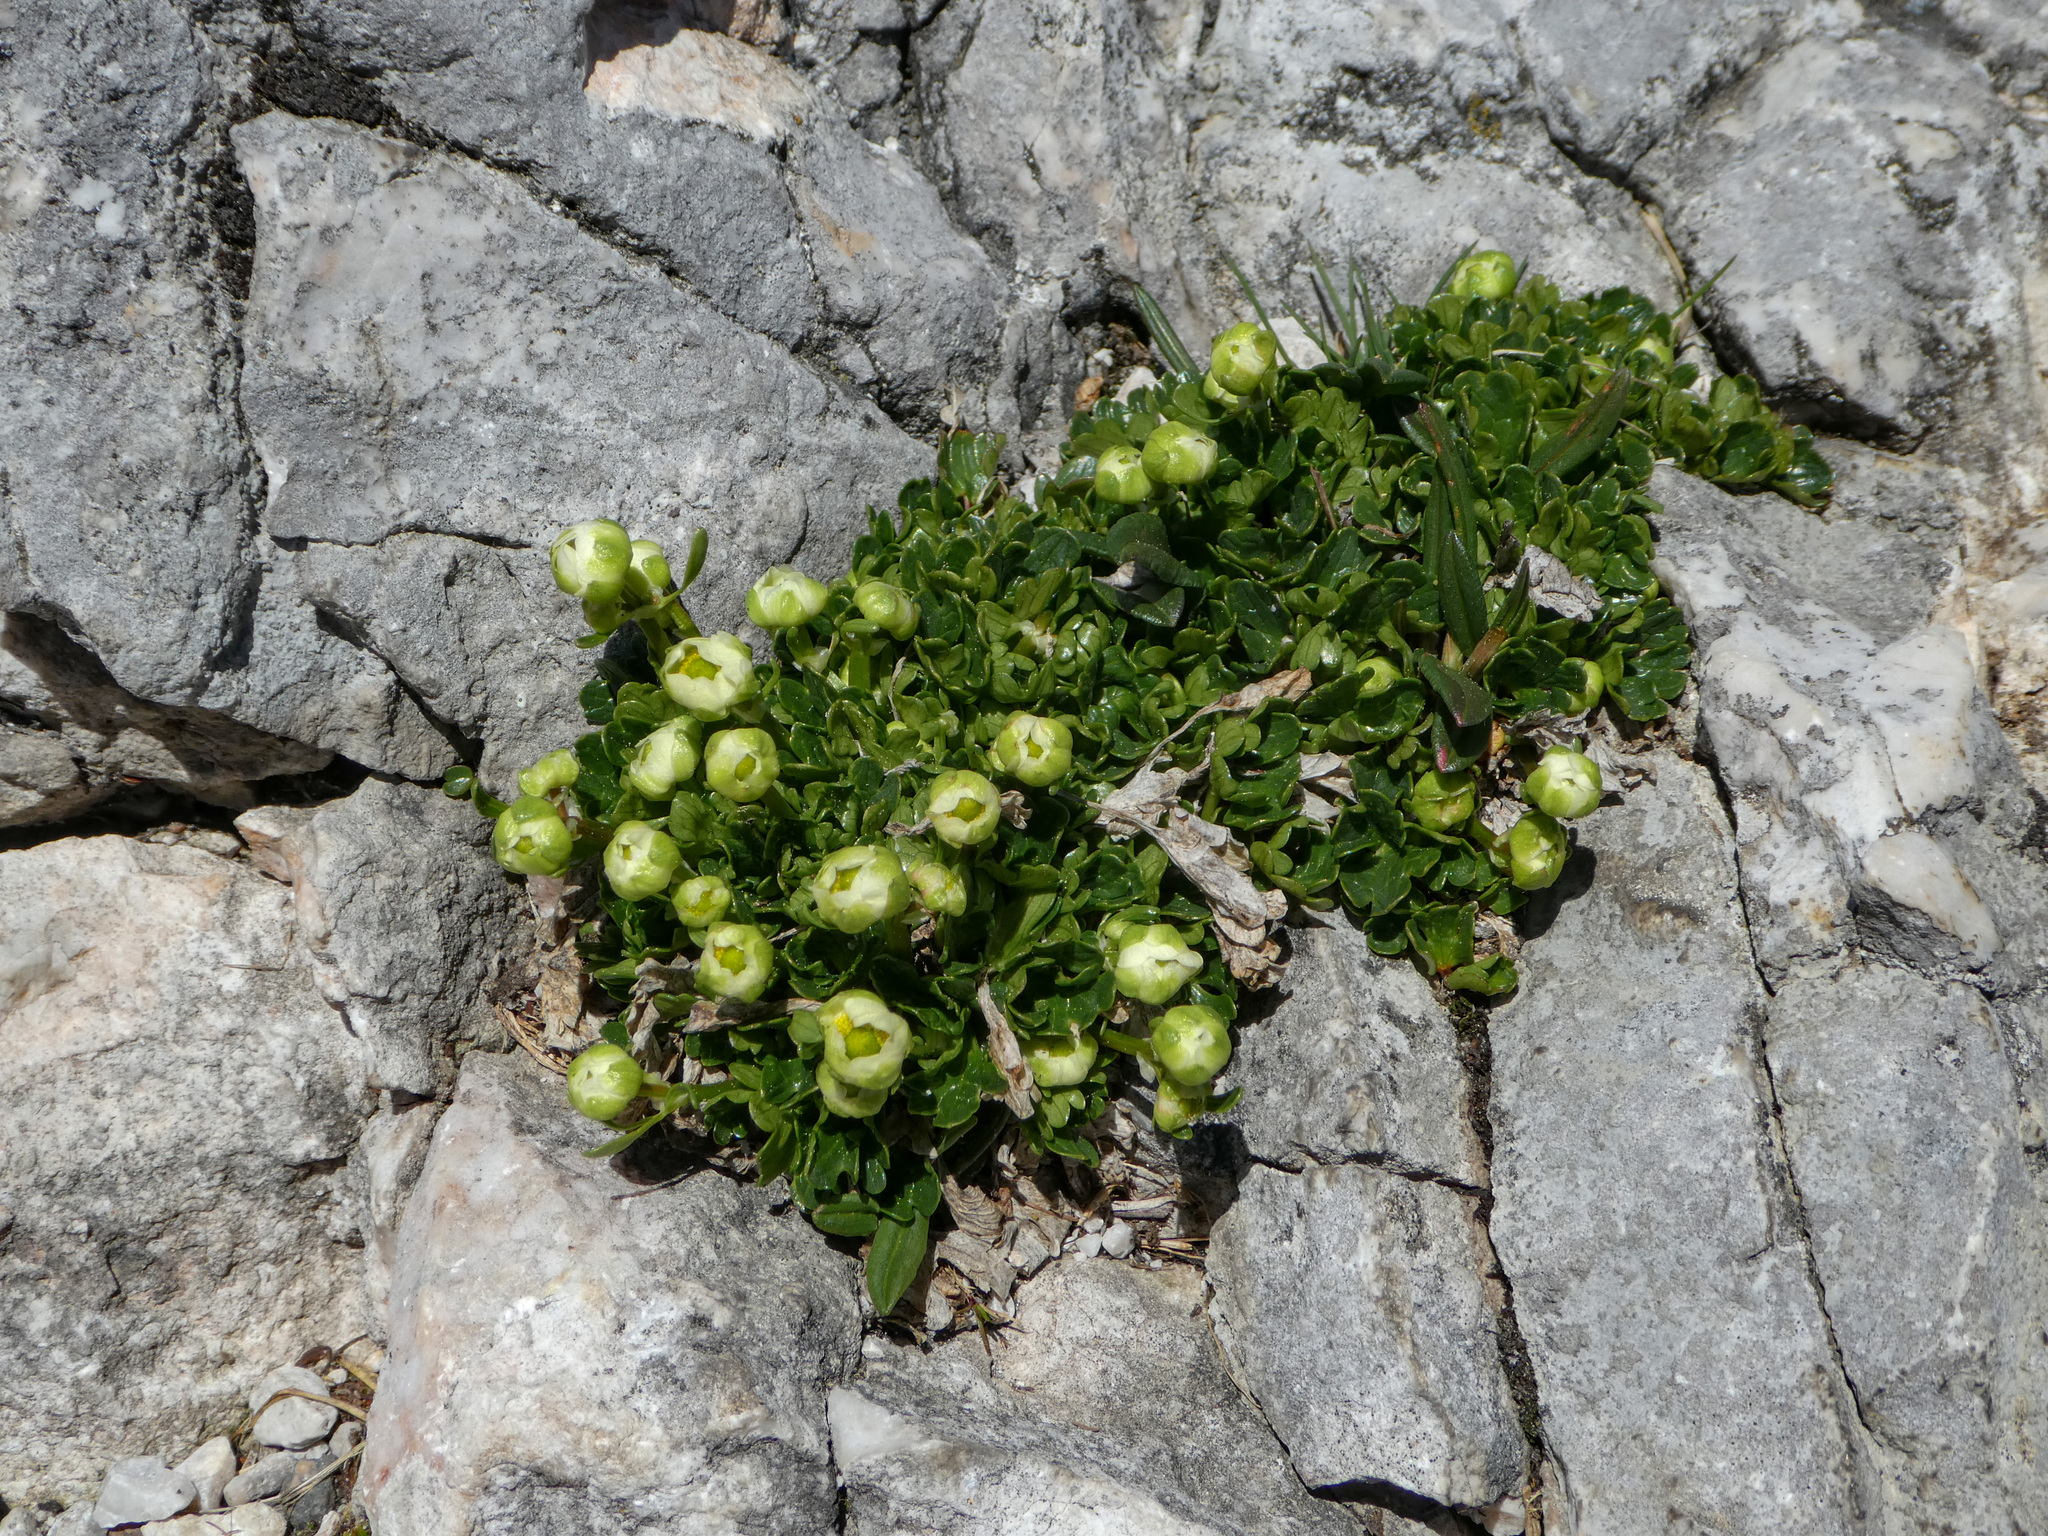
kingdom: Plantae
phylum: Tracheophyta
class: Magnoliopsida
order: Ranunculales
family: Ranunculaceae
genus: Ranunculus
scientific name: Ranunculus alpestris
